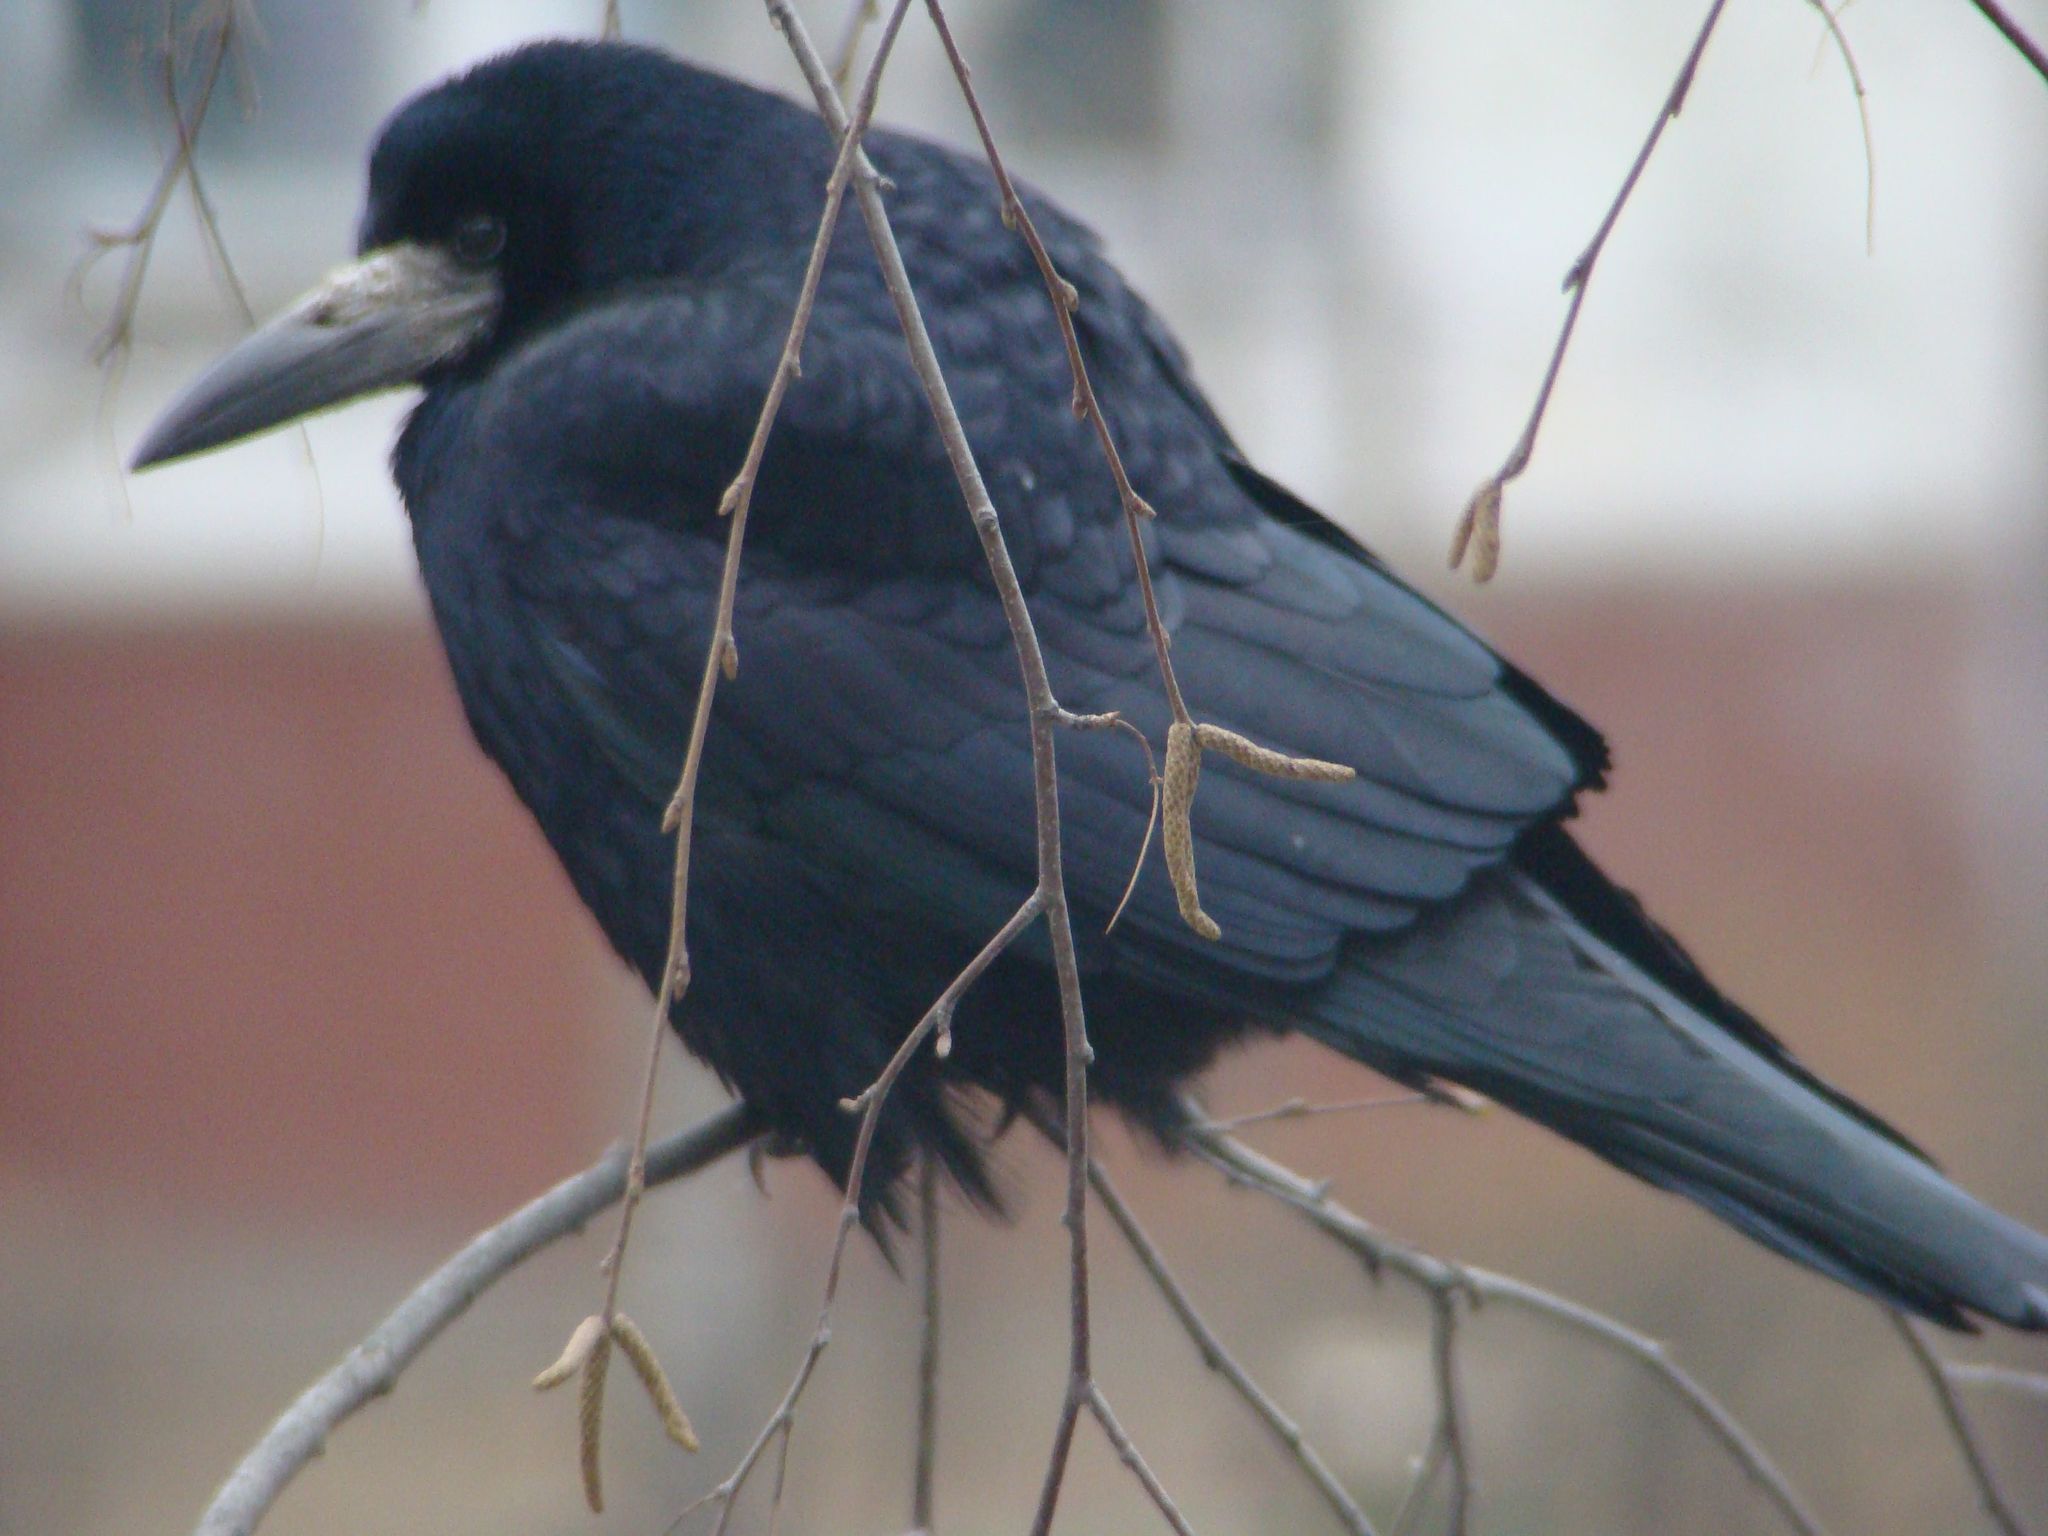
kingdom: Animalia
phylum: Chordata
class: Aves
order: Passeriformes
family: Corvidae
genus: Corvus
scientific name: Corvus frugilegus
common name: Rook
